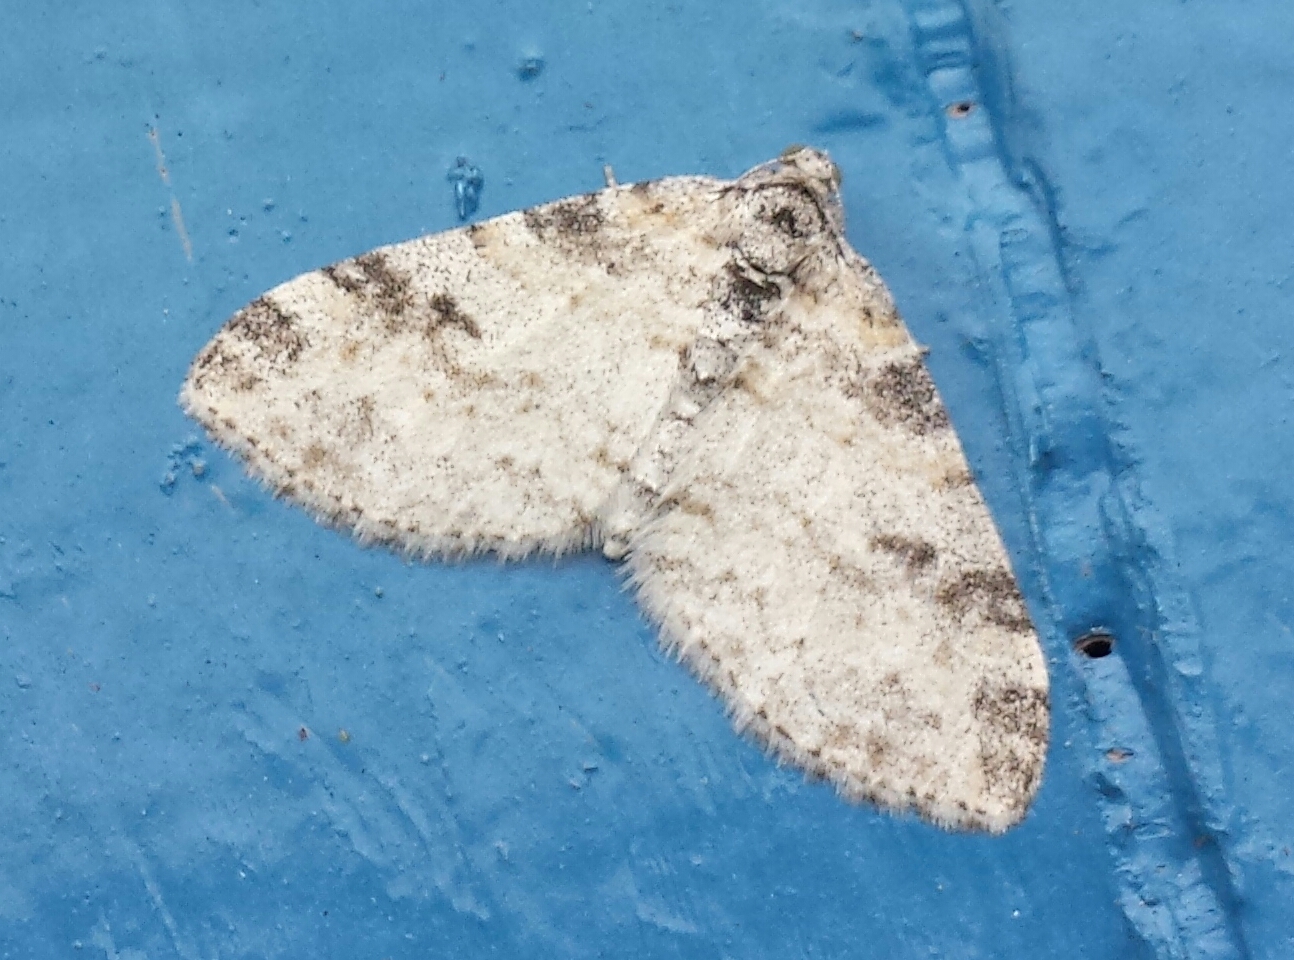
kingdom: Animalia
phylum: Arthropoda
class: Insecta
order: Lepidoptera
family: Geometridae
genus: Lobophora
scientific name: Lobophora nivigerata
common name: Powdered bigwing
